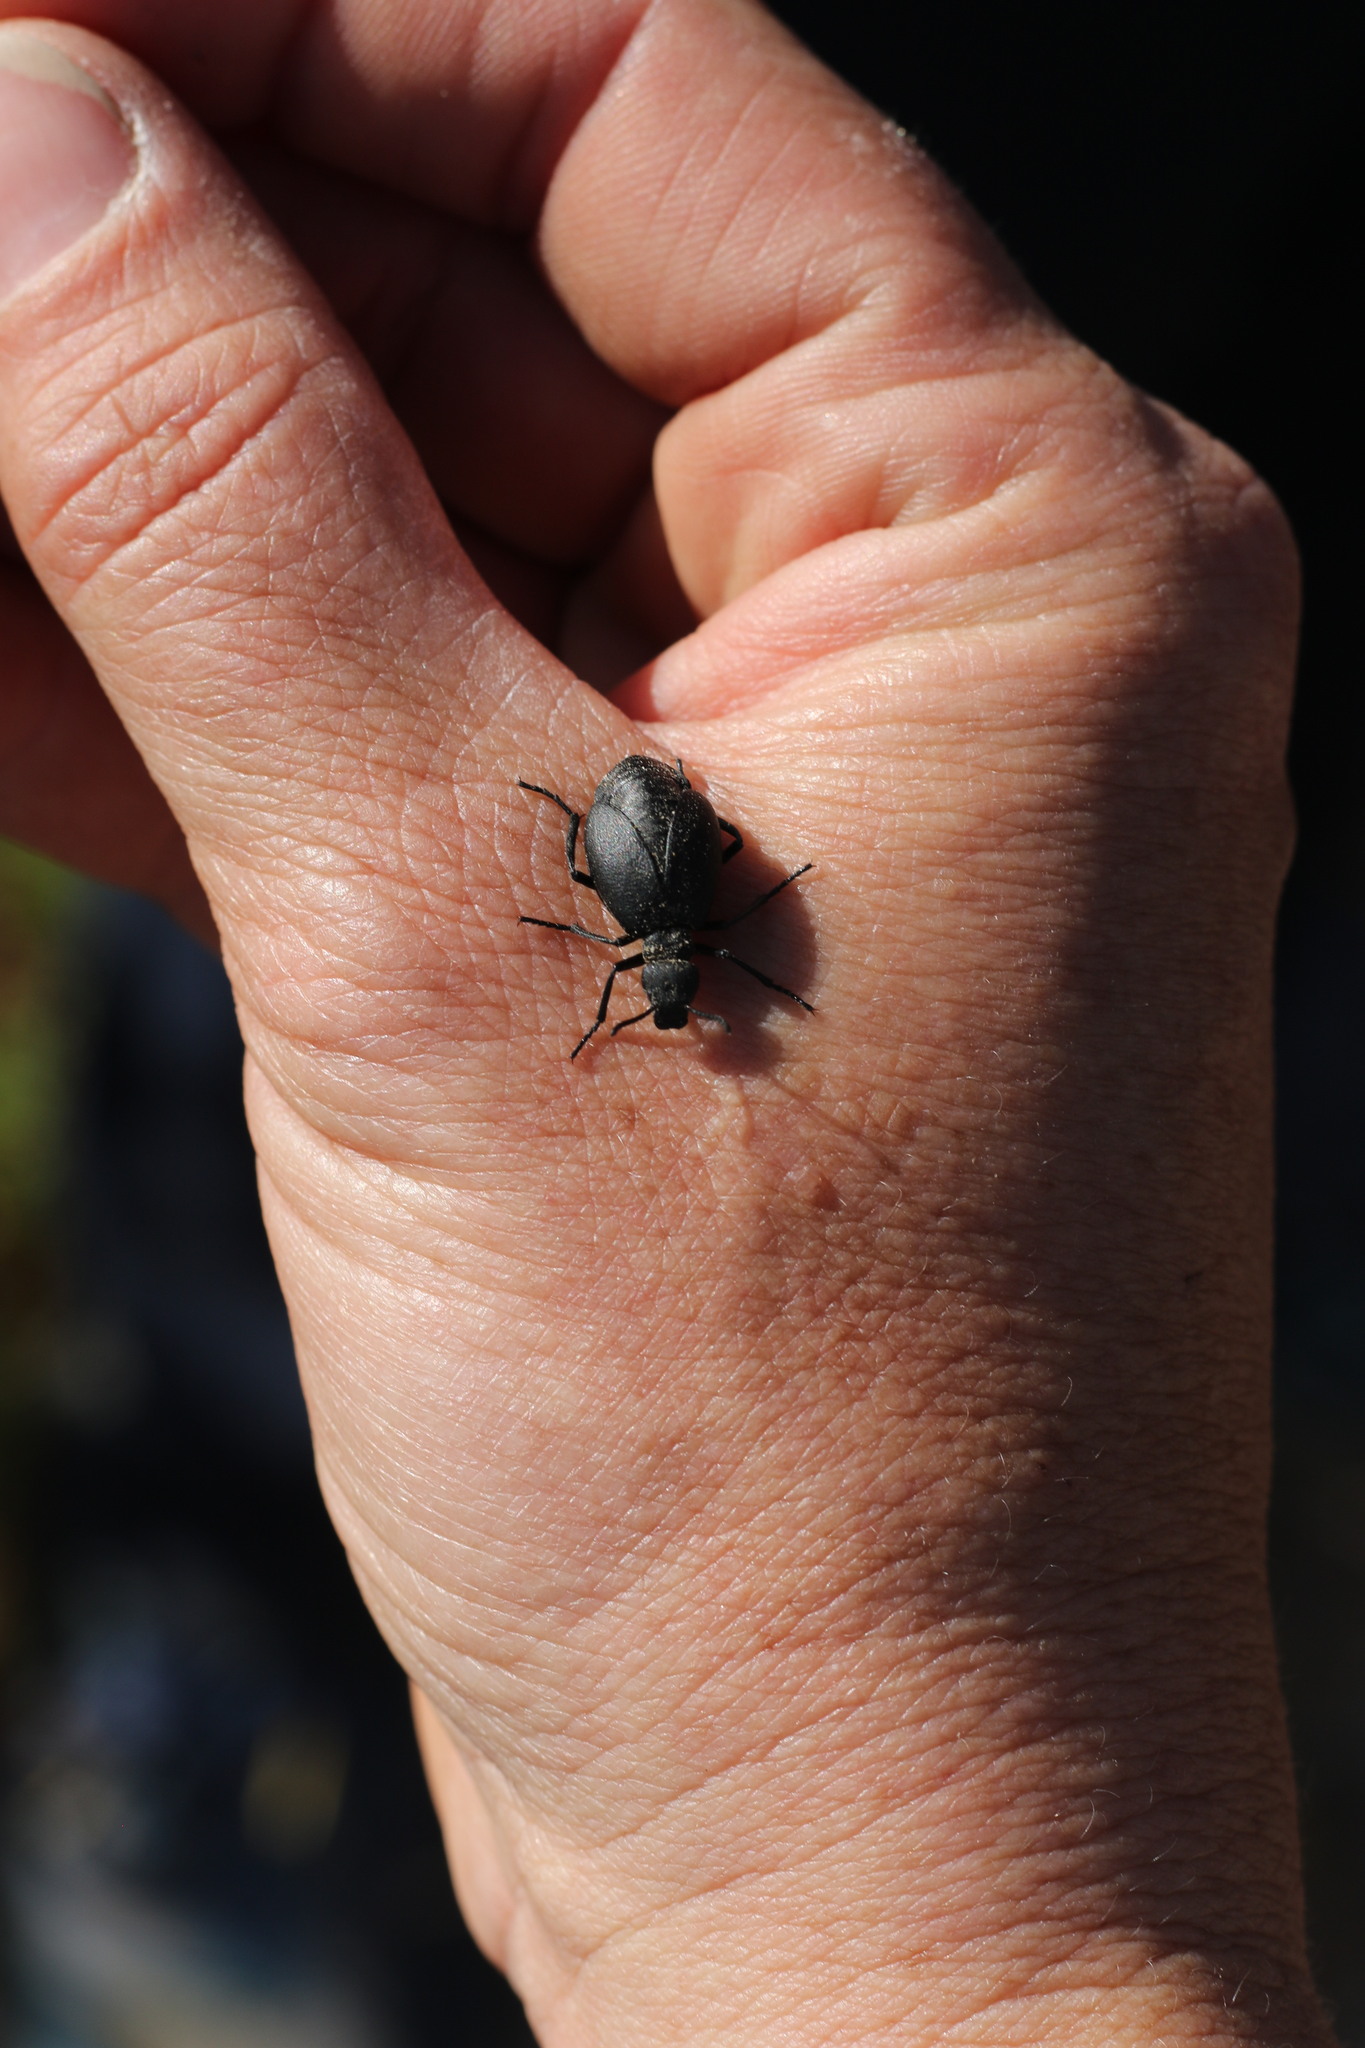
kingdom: Animalia
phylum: Arthropoda
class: Insecta
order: Coleoptera
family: Meloidae
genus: Cordylospasta
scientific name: Cordylospasta opaca
